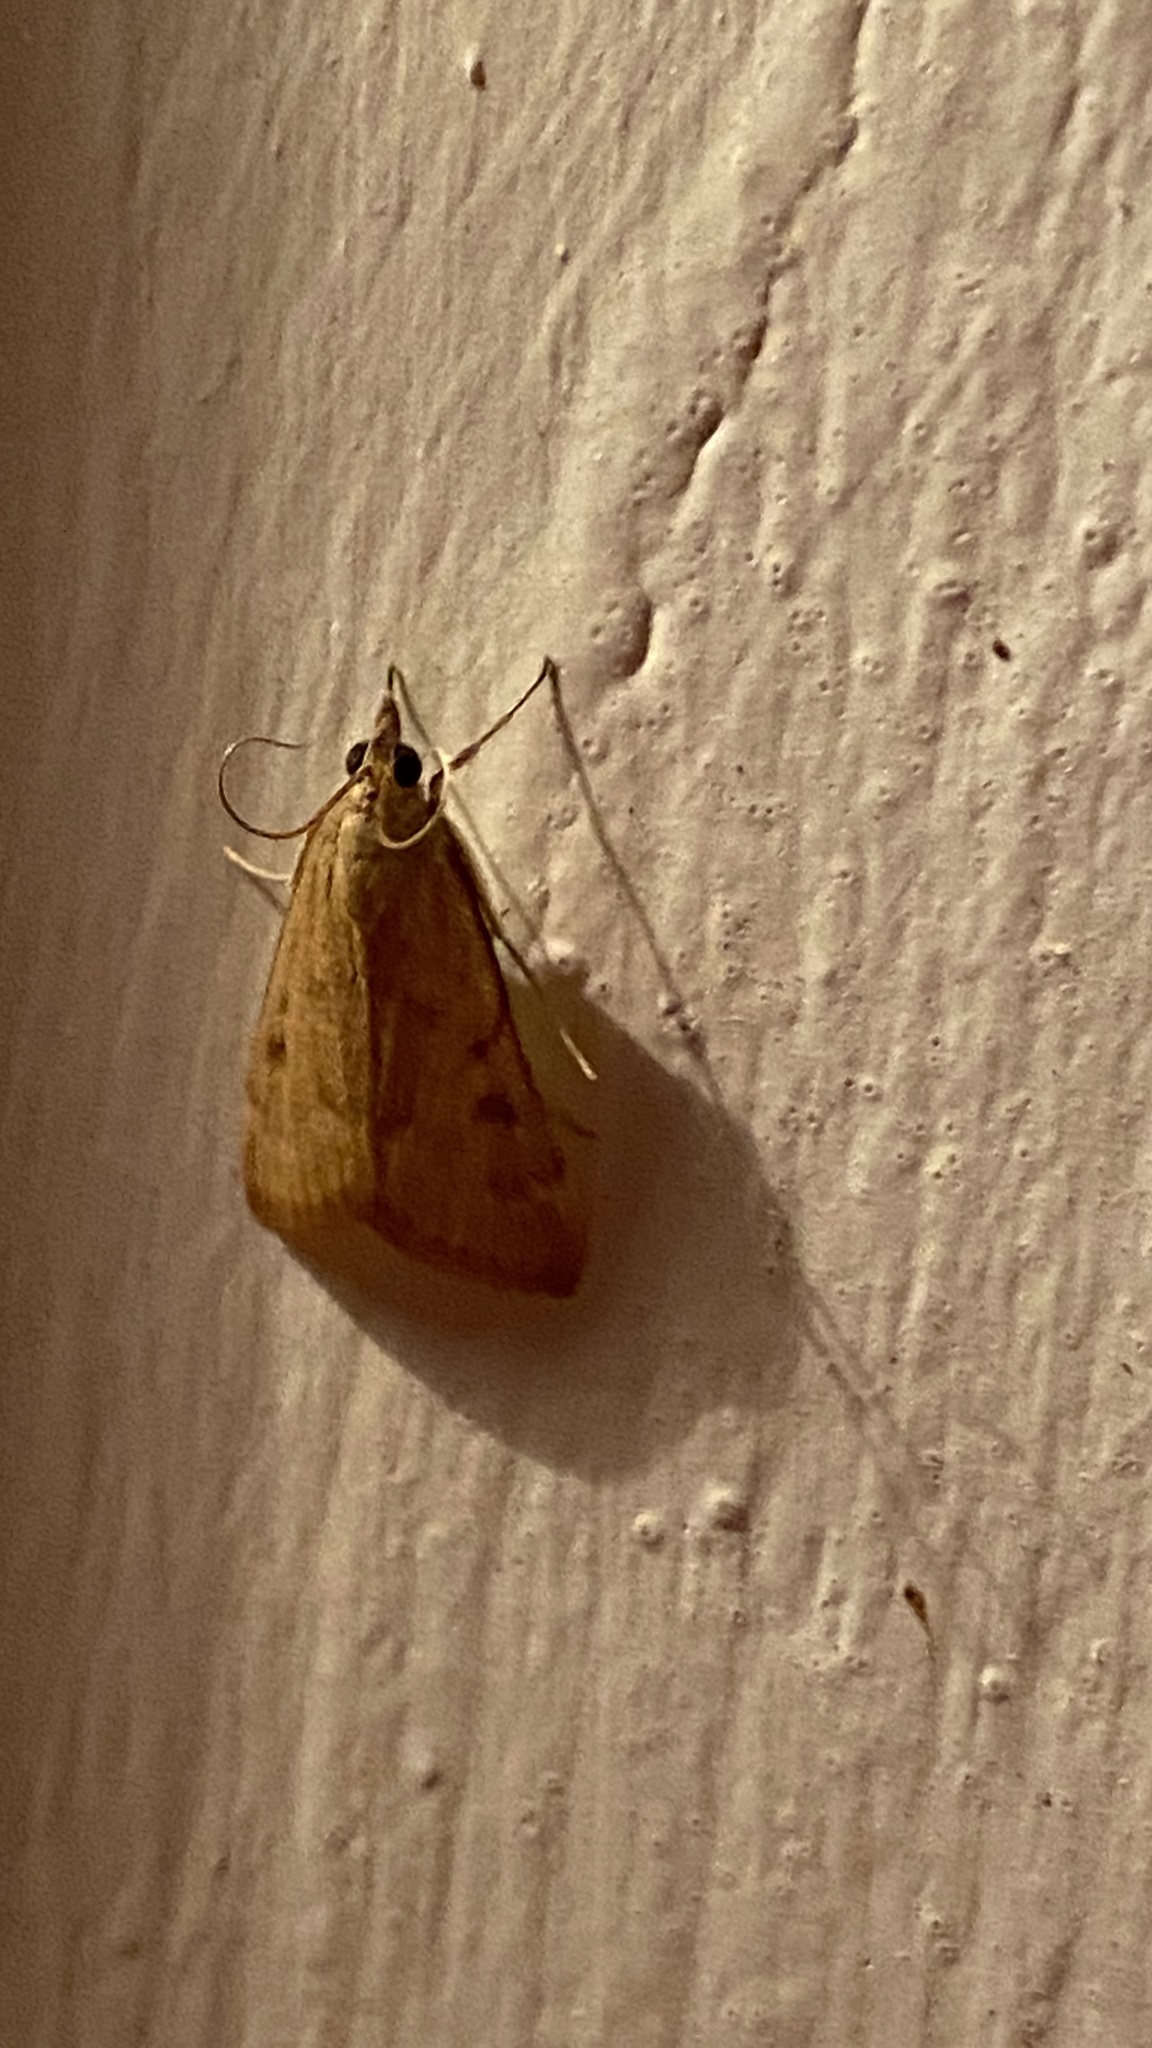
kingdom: Animalia
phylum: Arthropoda
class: Insecta
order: Lepidoptera
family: Crambidae
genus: Achyra
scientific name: Achyra rantalis
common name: Garden webworm
